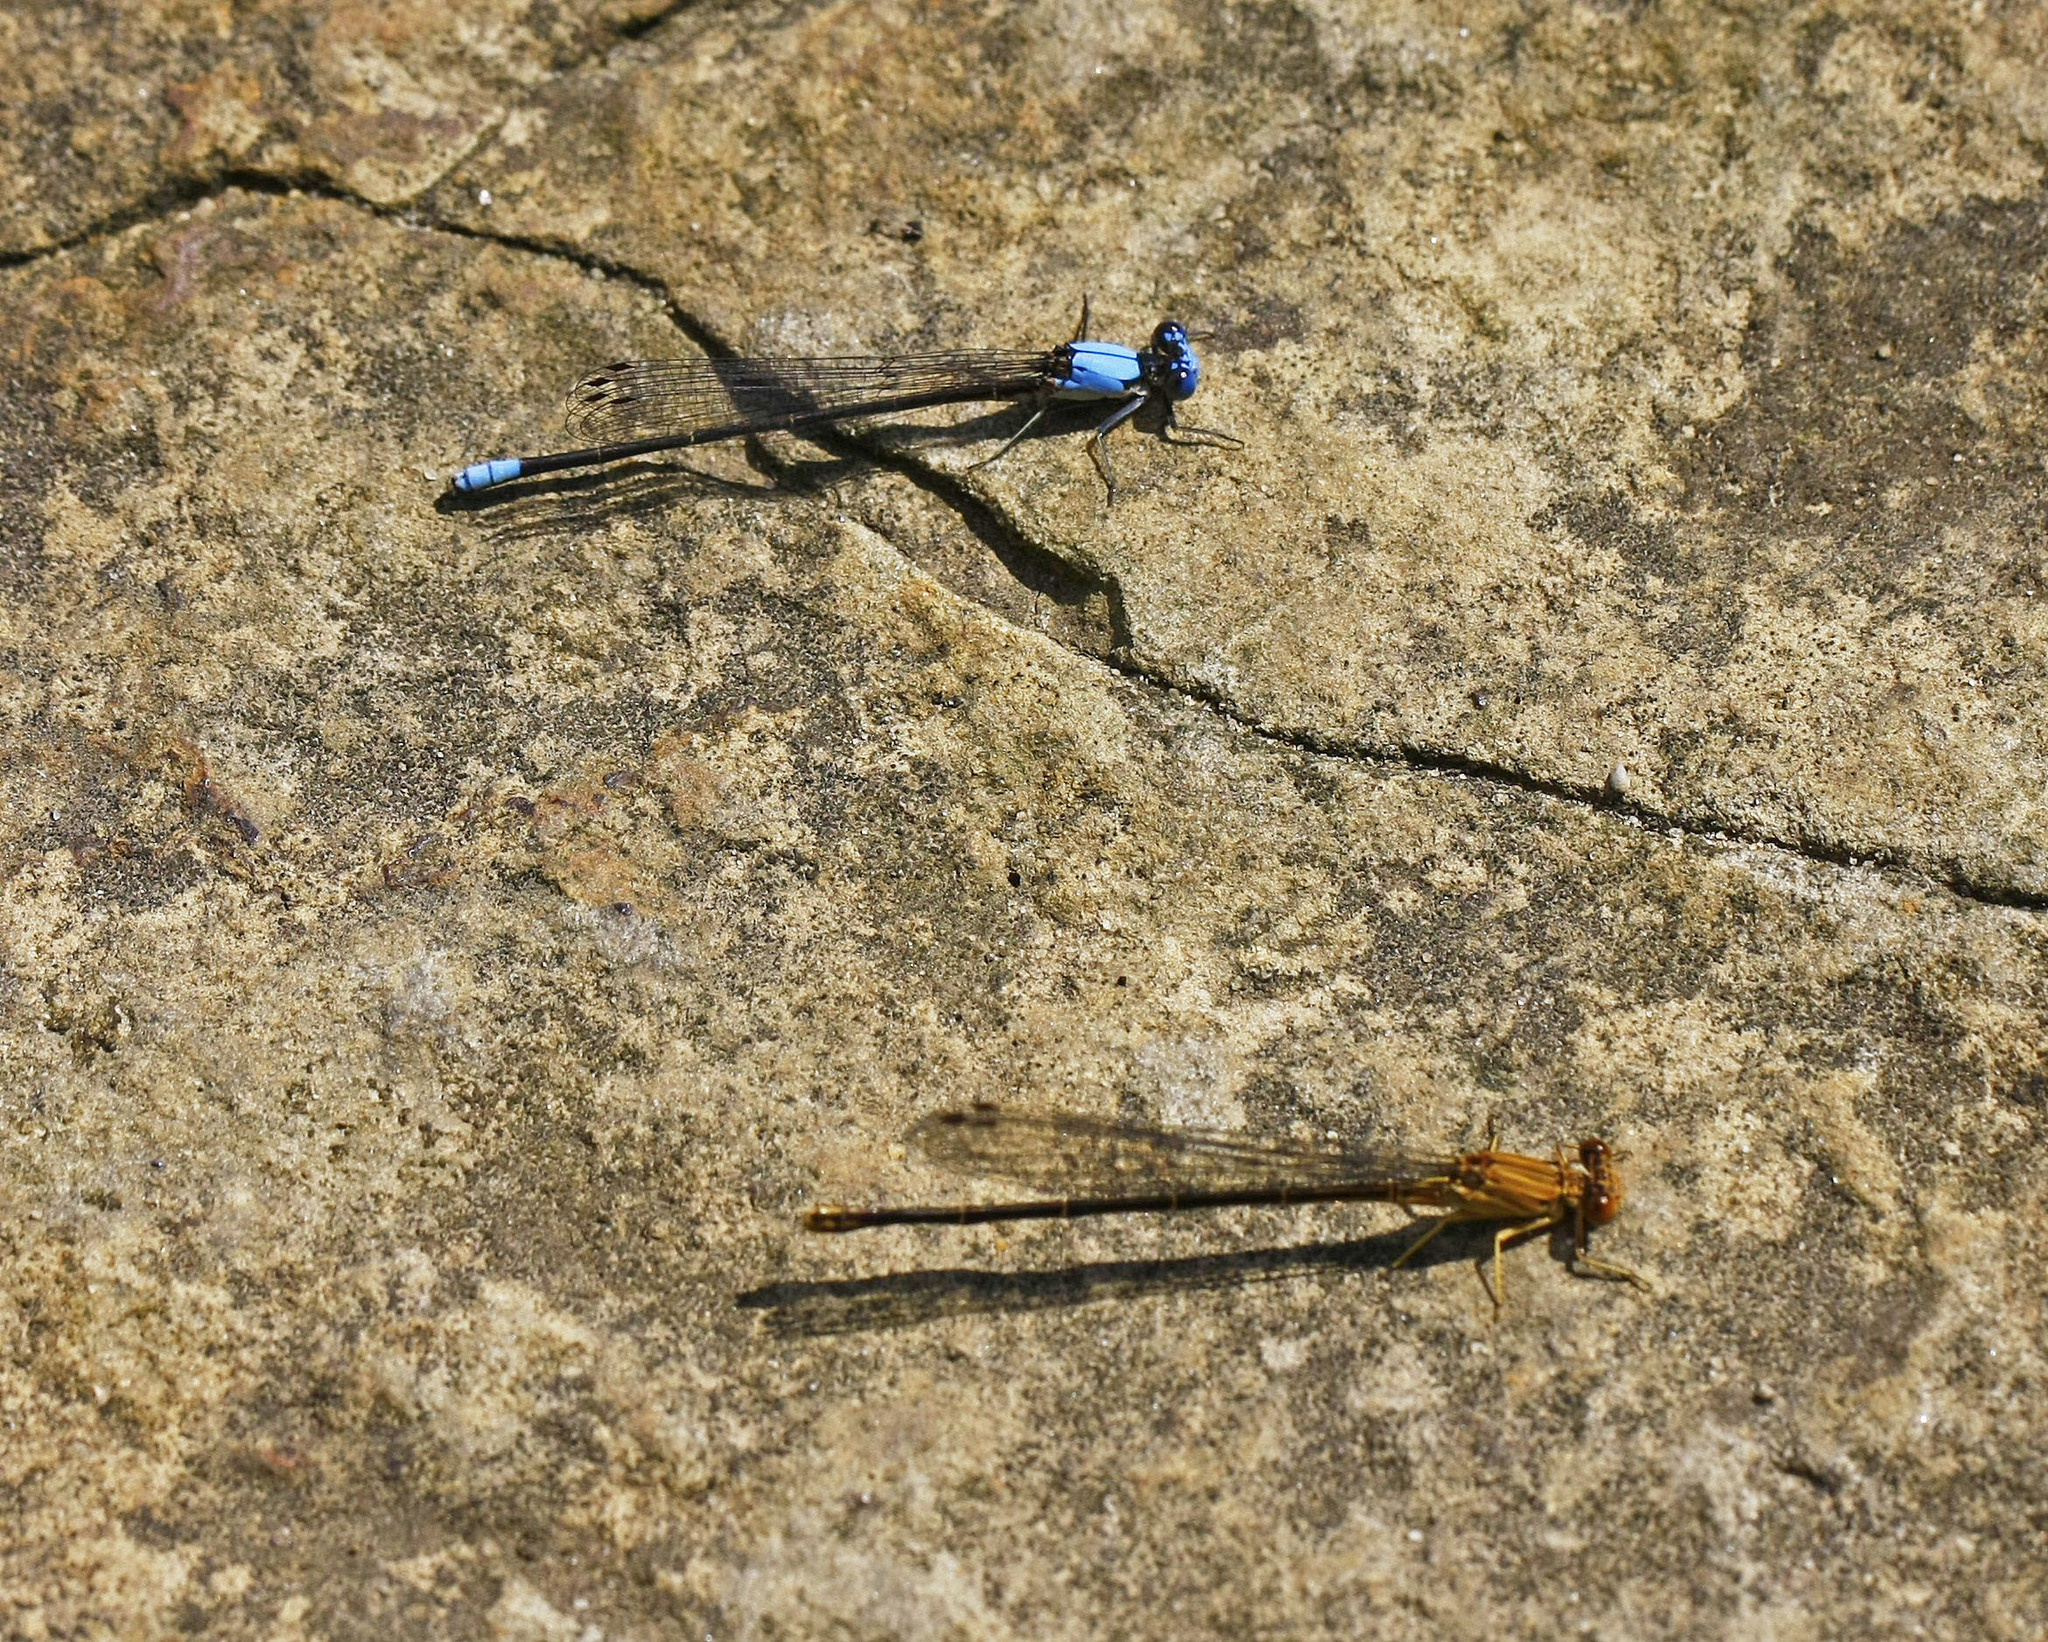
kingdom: Animalia
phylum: Arthropoda
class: Insecta
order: Odonata
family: Coenagrionidae
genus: Argia
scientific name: Argia apicalis
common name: Blue-fronted dancer
